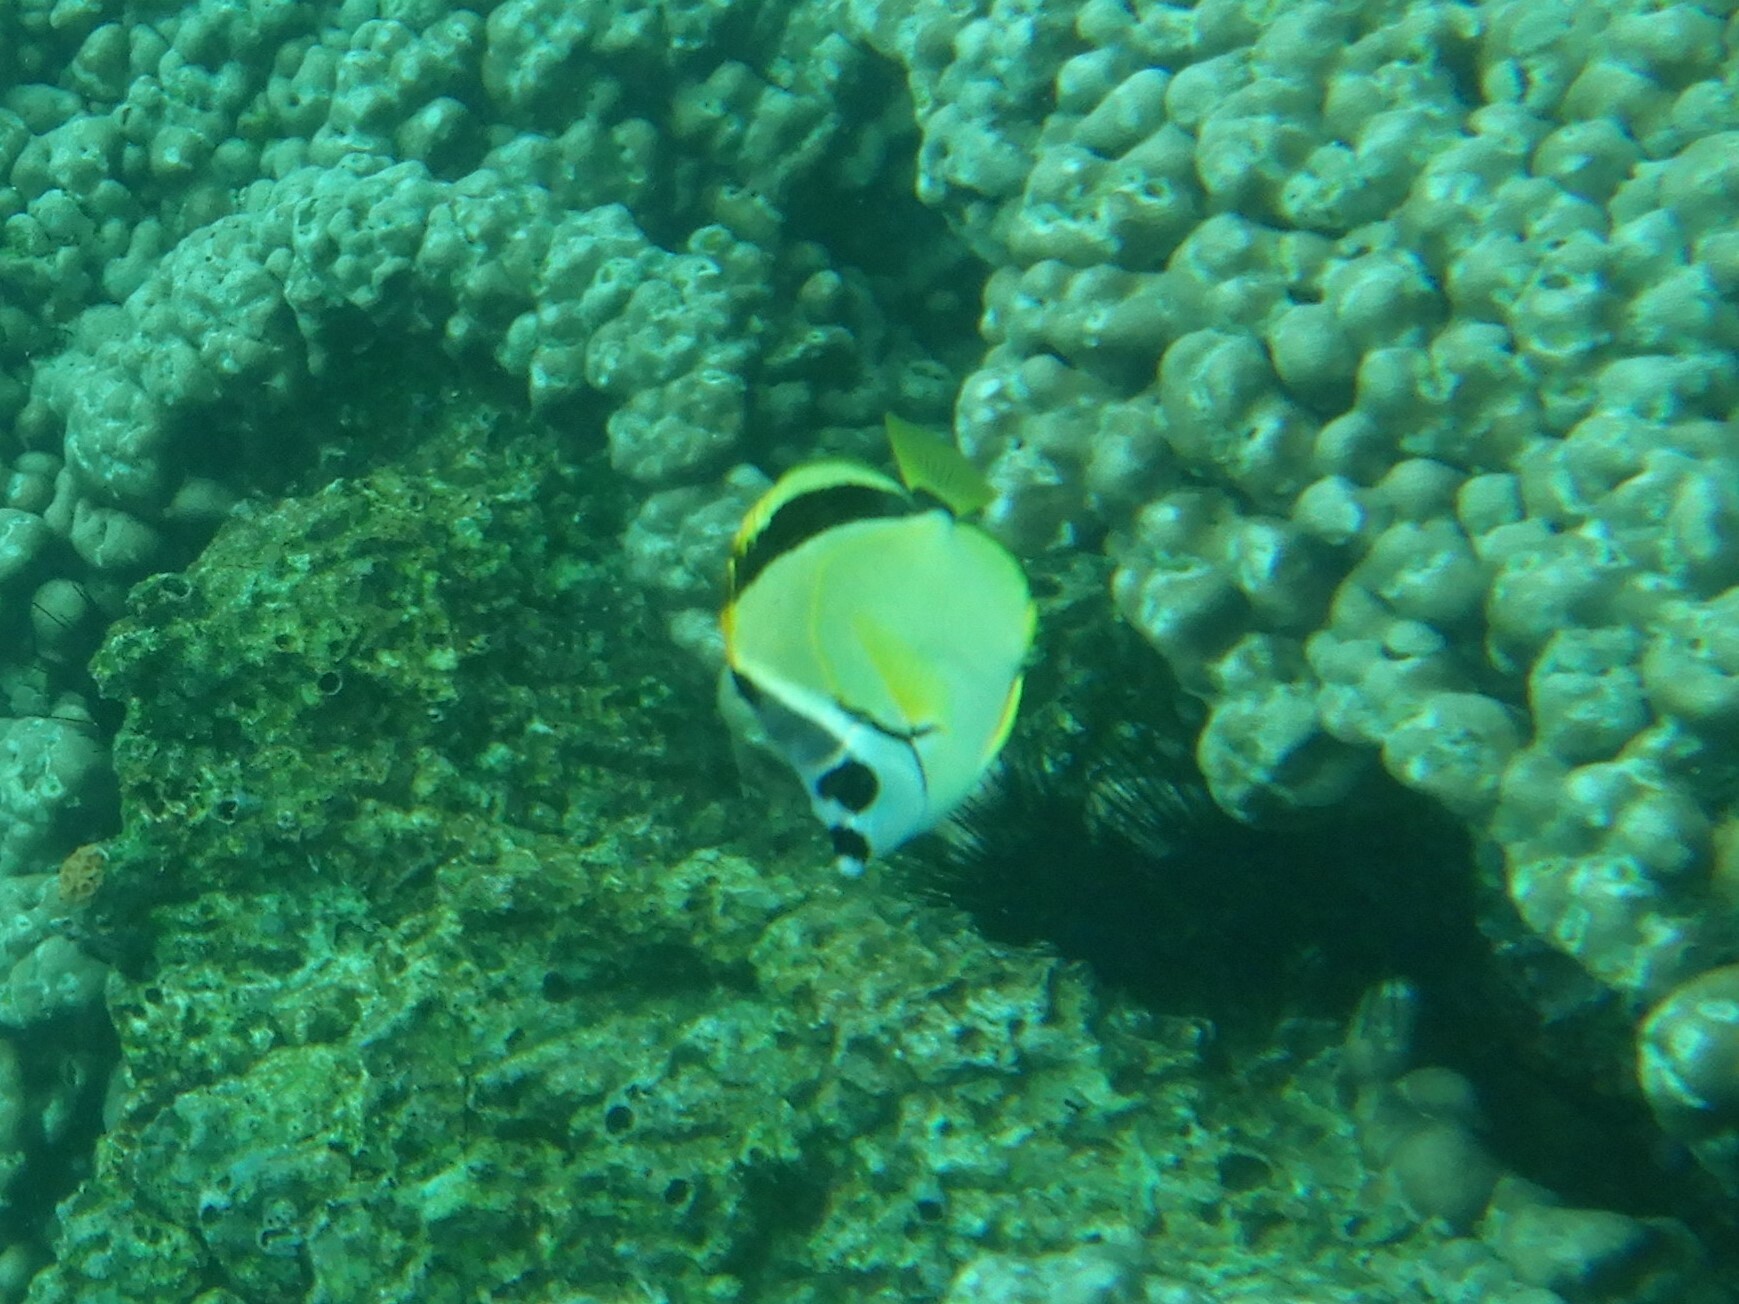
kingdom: Animalia
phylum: Chordata
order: Perciformes
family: Chaetodontidae
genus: Johnrandallia
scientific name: Johnrandallia nigrirostris
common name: Barberfish
